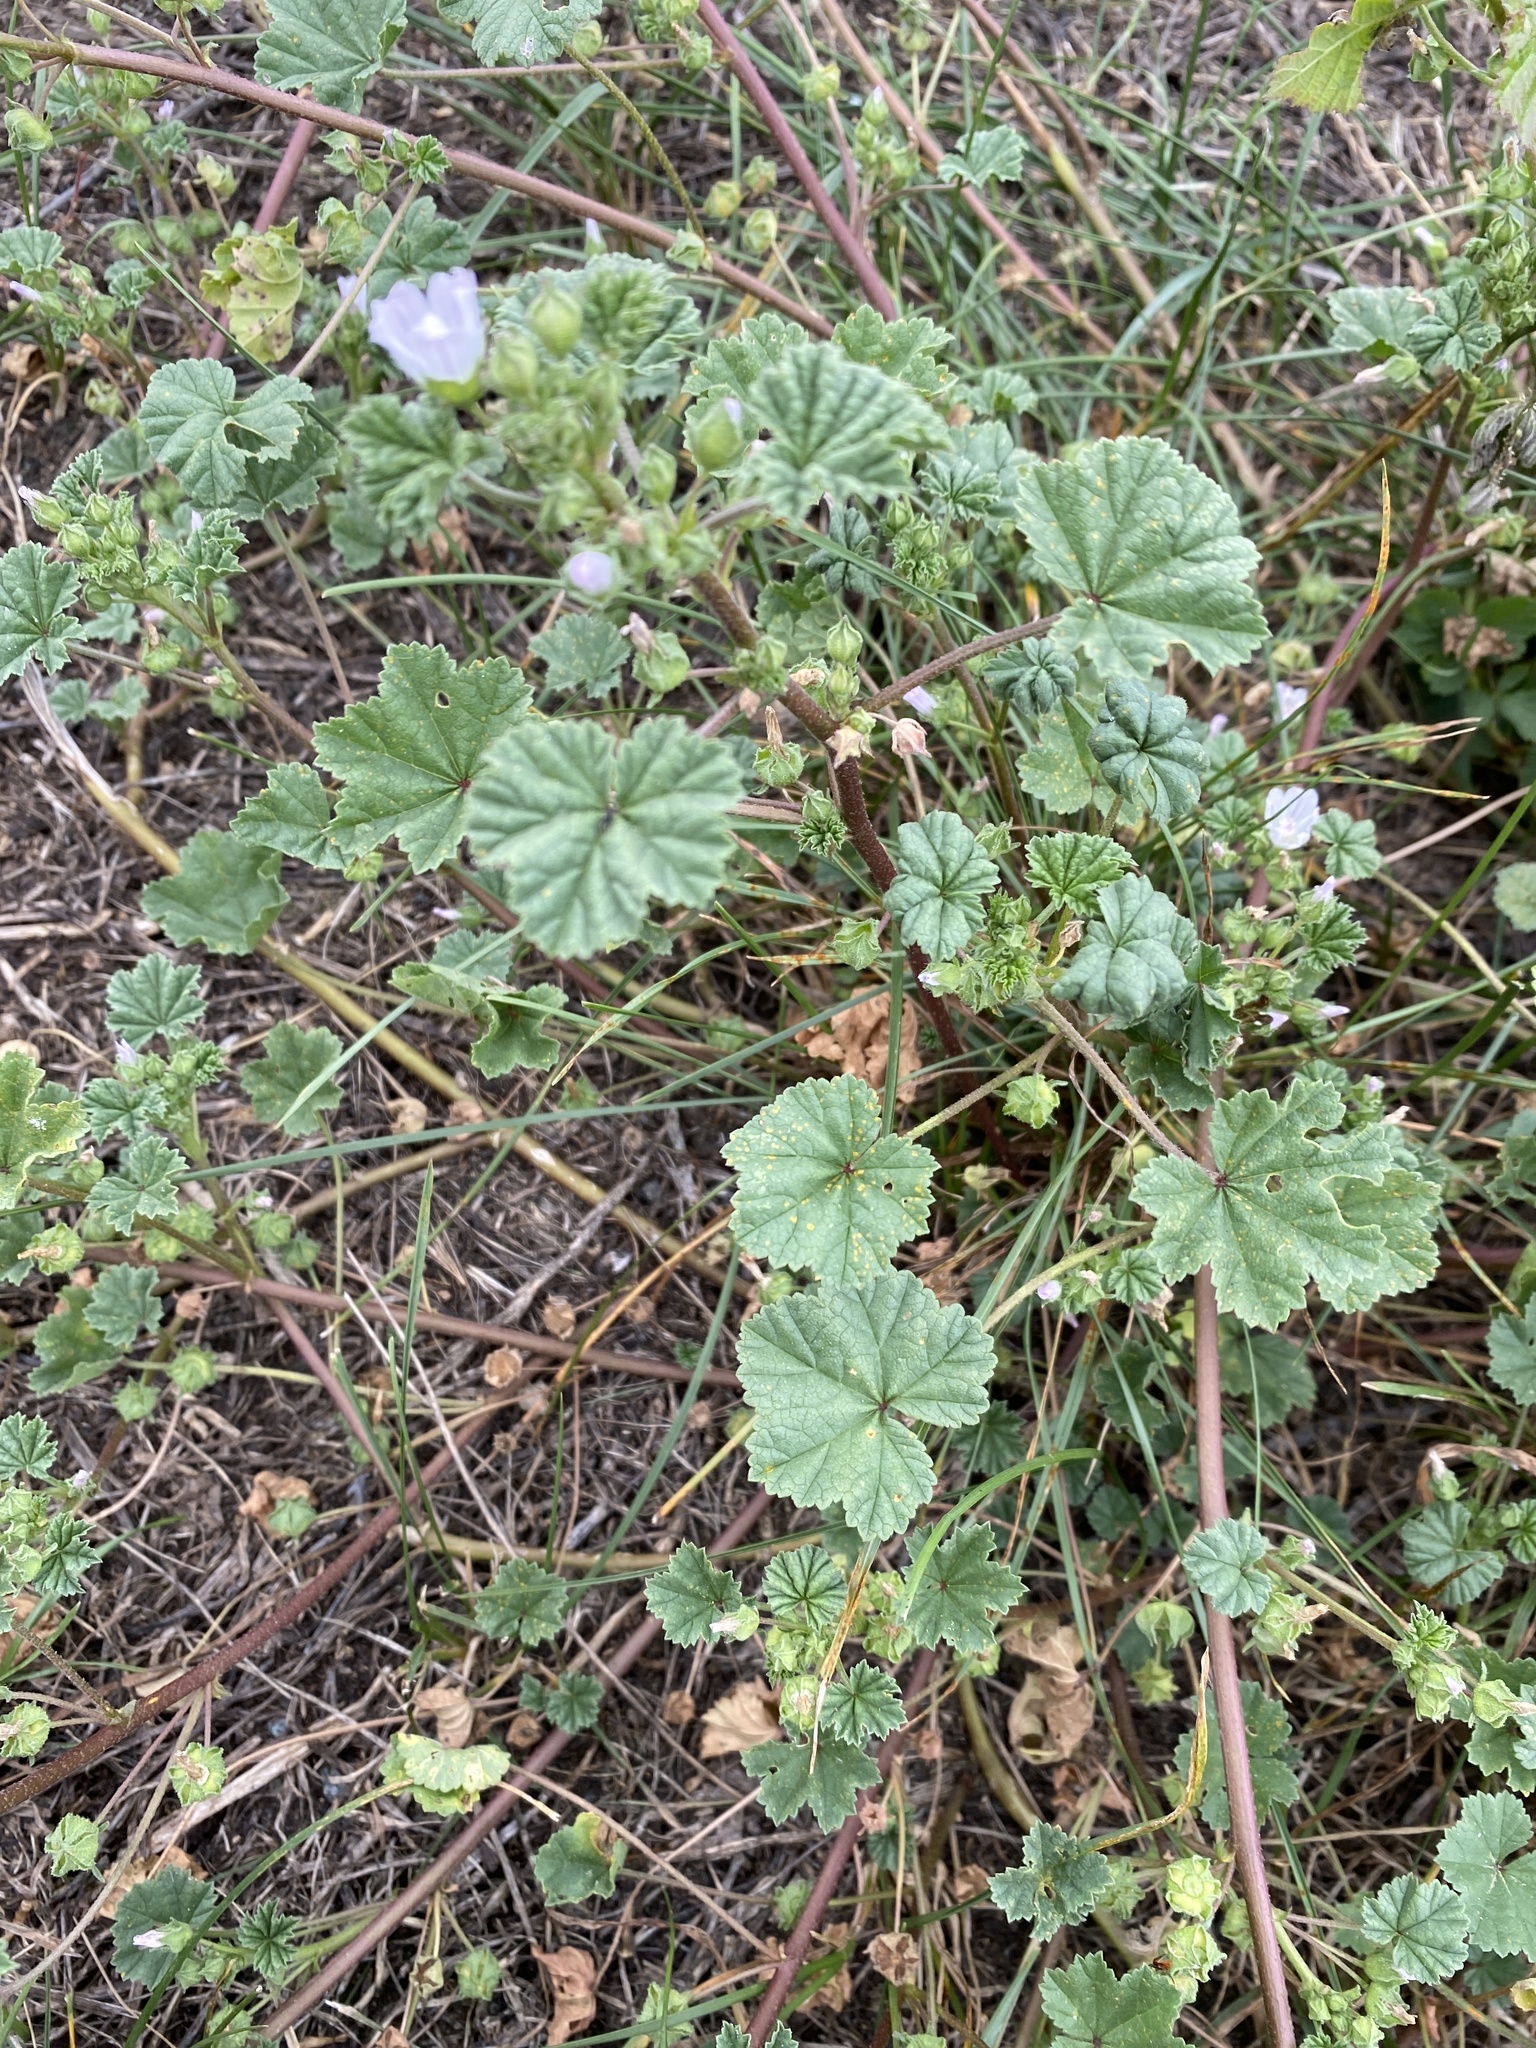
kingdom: Plantae
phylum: Tracheophyta
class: Magnoliopsida
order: Malvales
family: Malvaceae
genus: Malva
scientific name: Malva neglecta
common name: Common mallow
